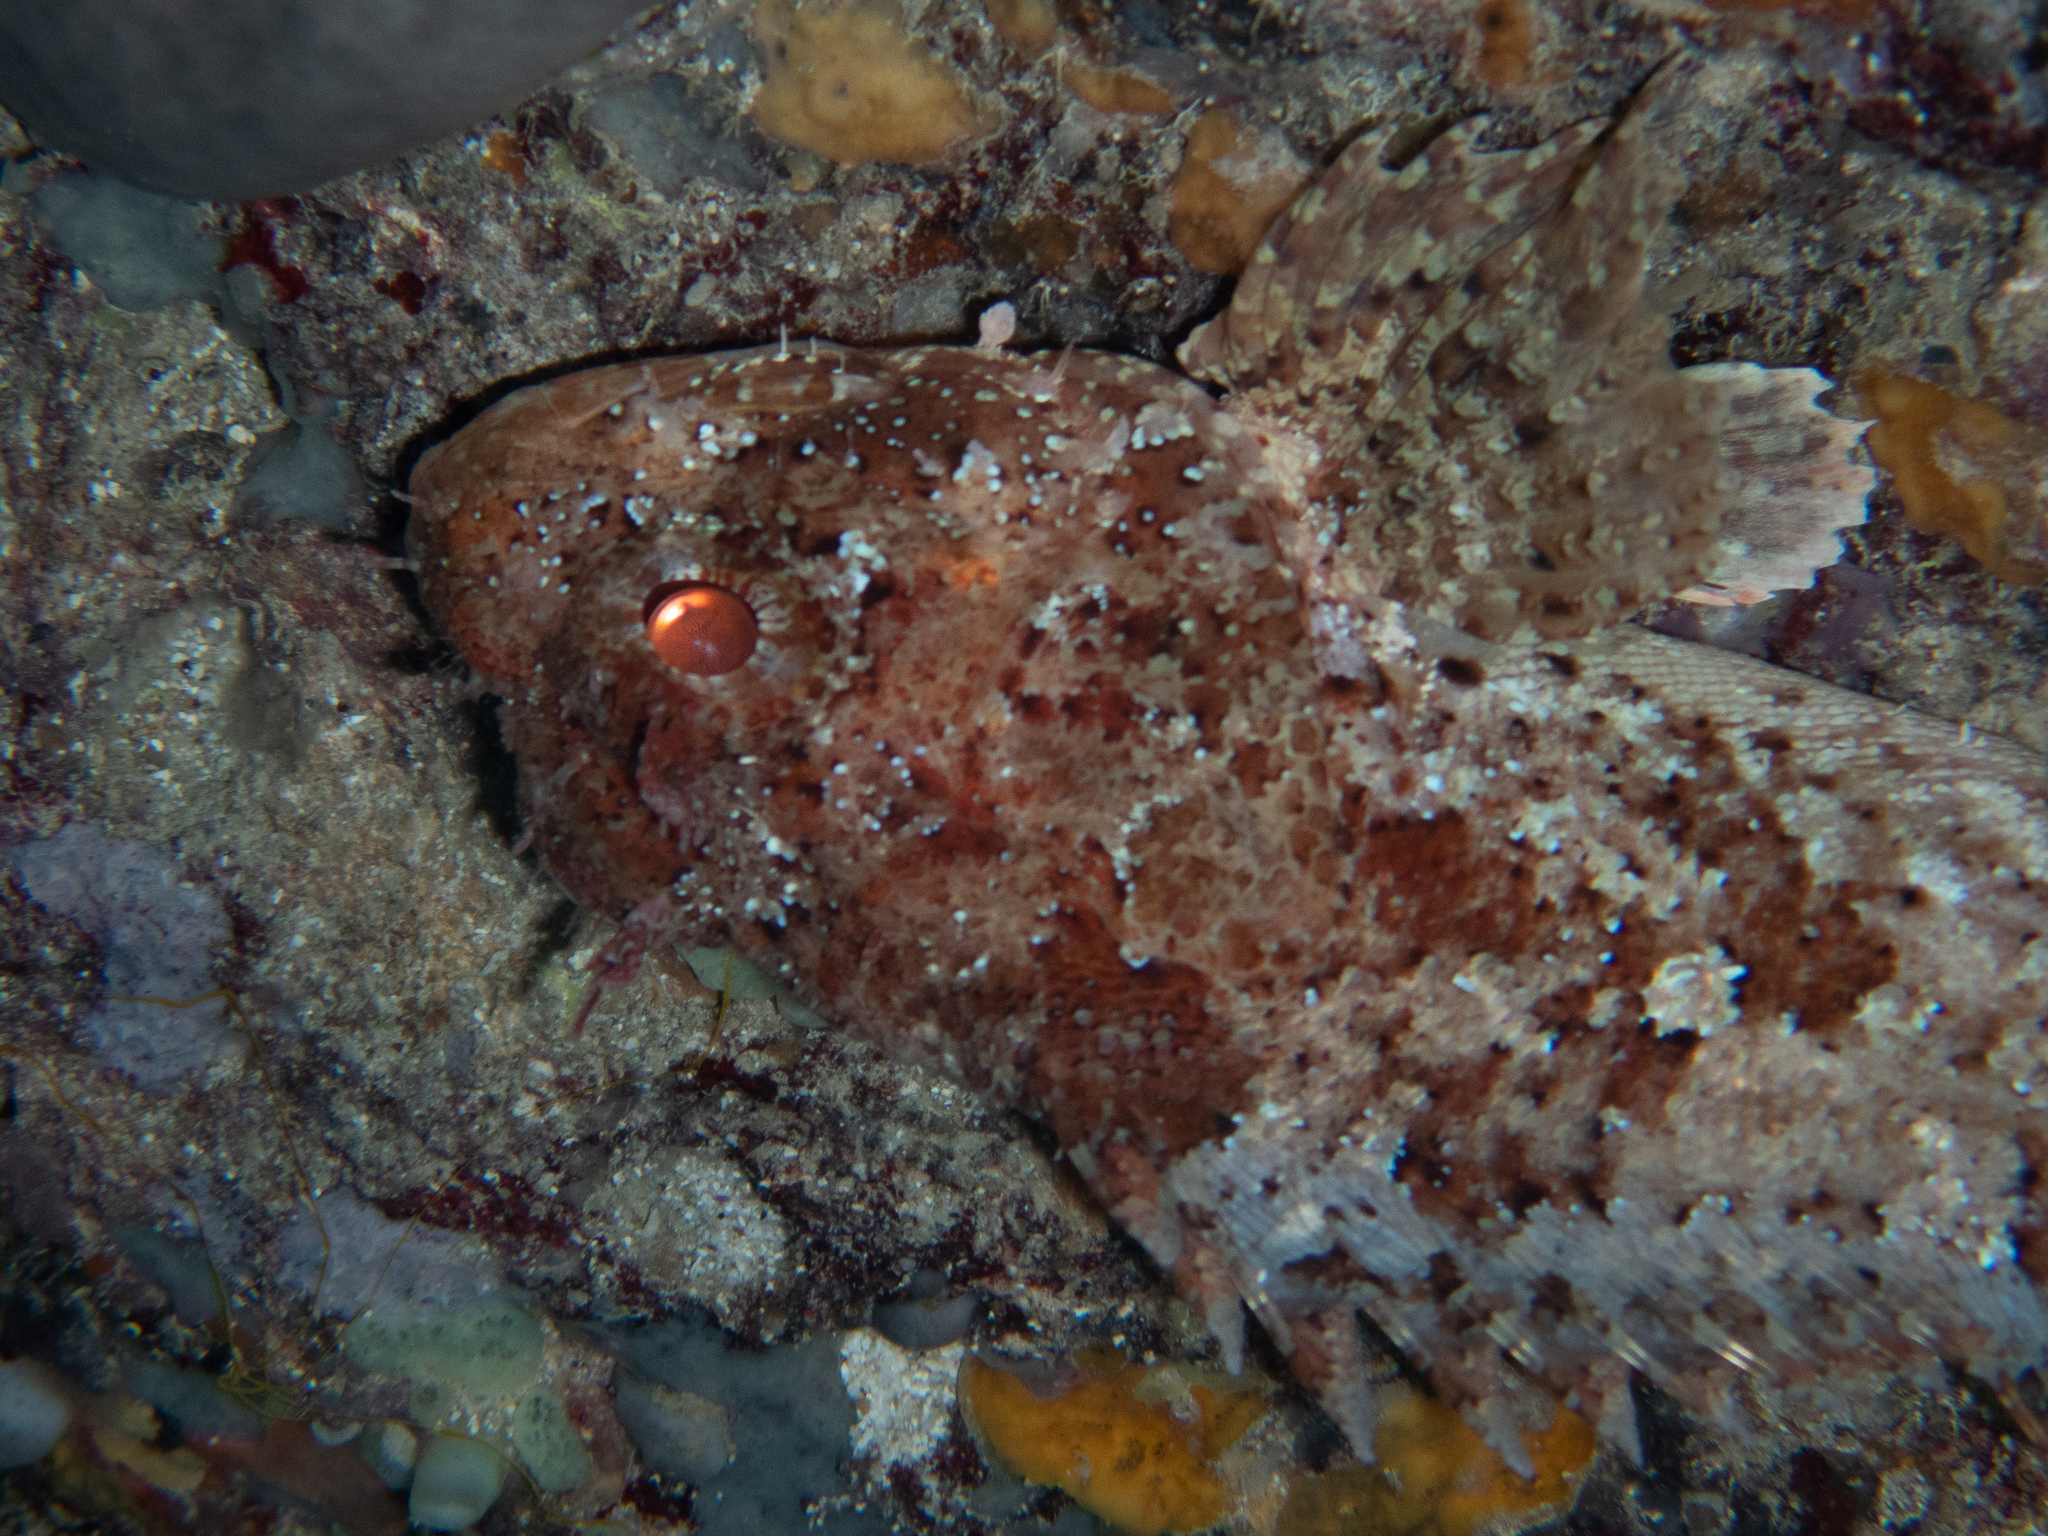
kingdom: Animalia
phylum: Chordata
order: Scorpaeniformes
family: Scorpaenidae
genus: Scorpaena
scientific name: Scorpaena porcus
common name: Black scorpionfish
